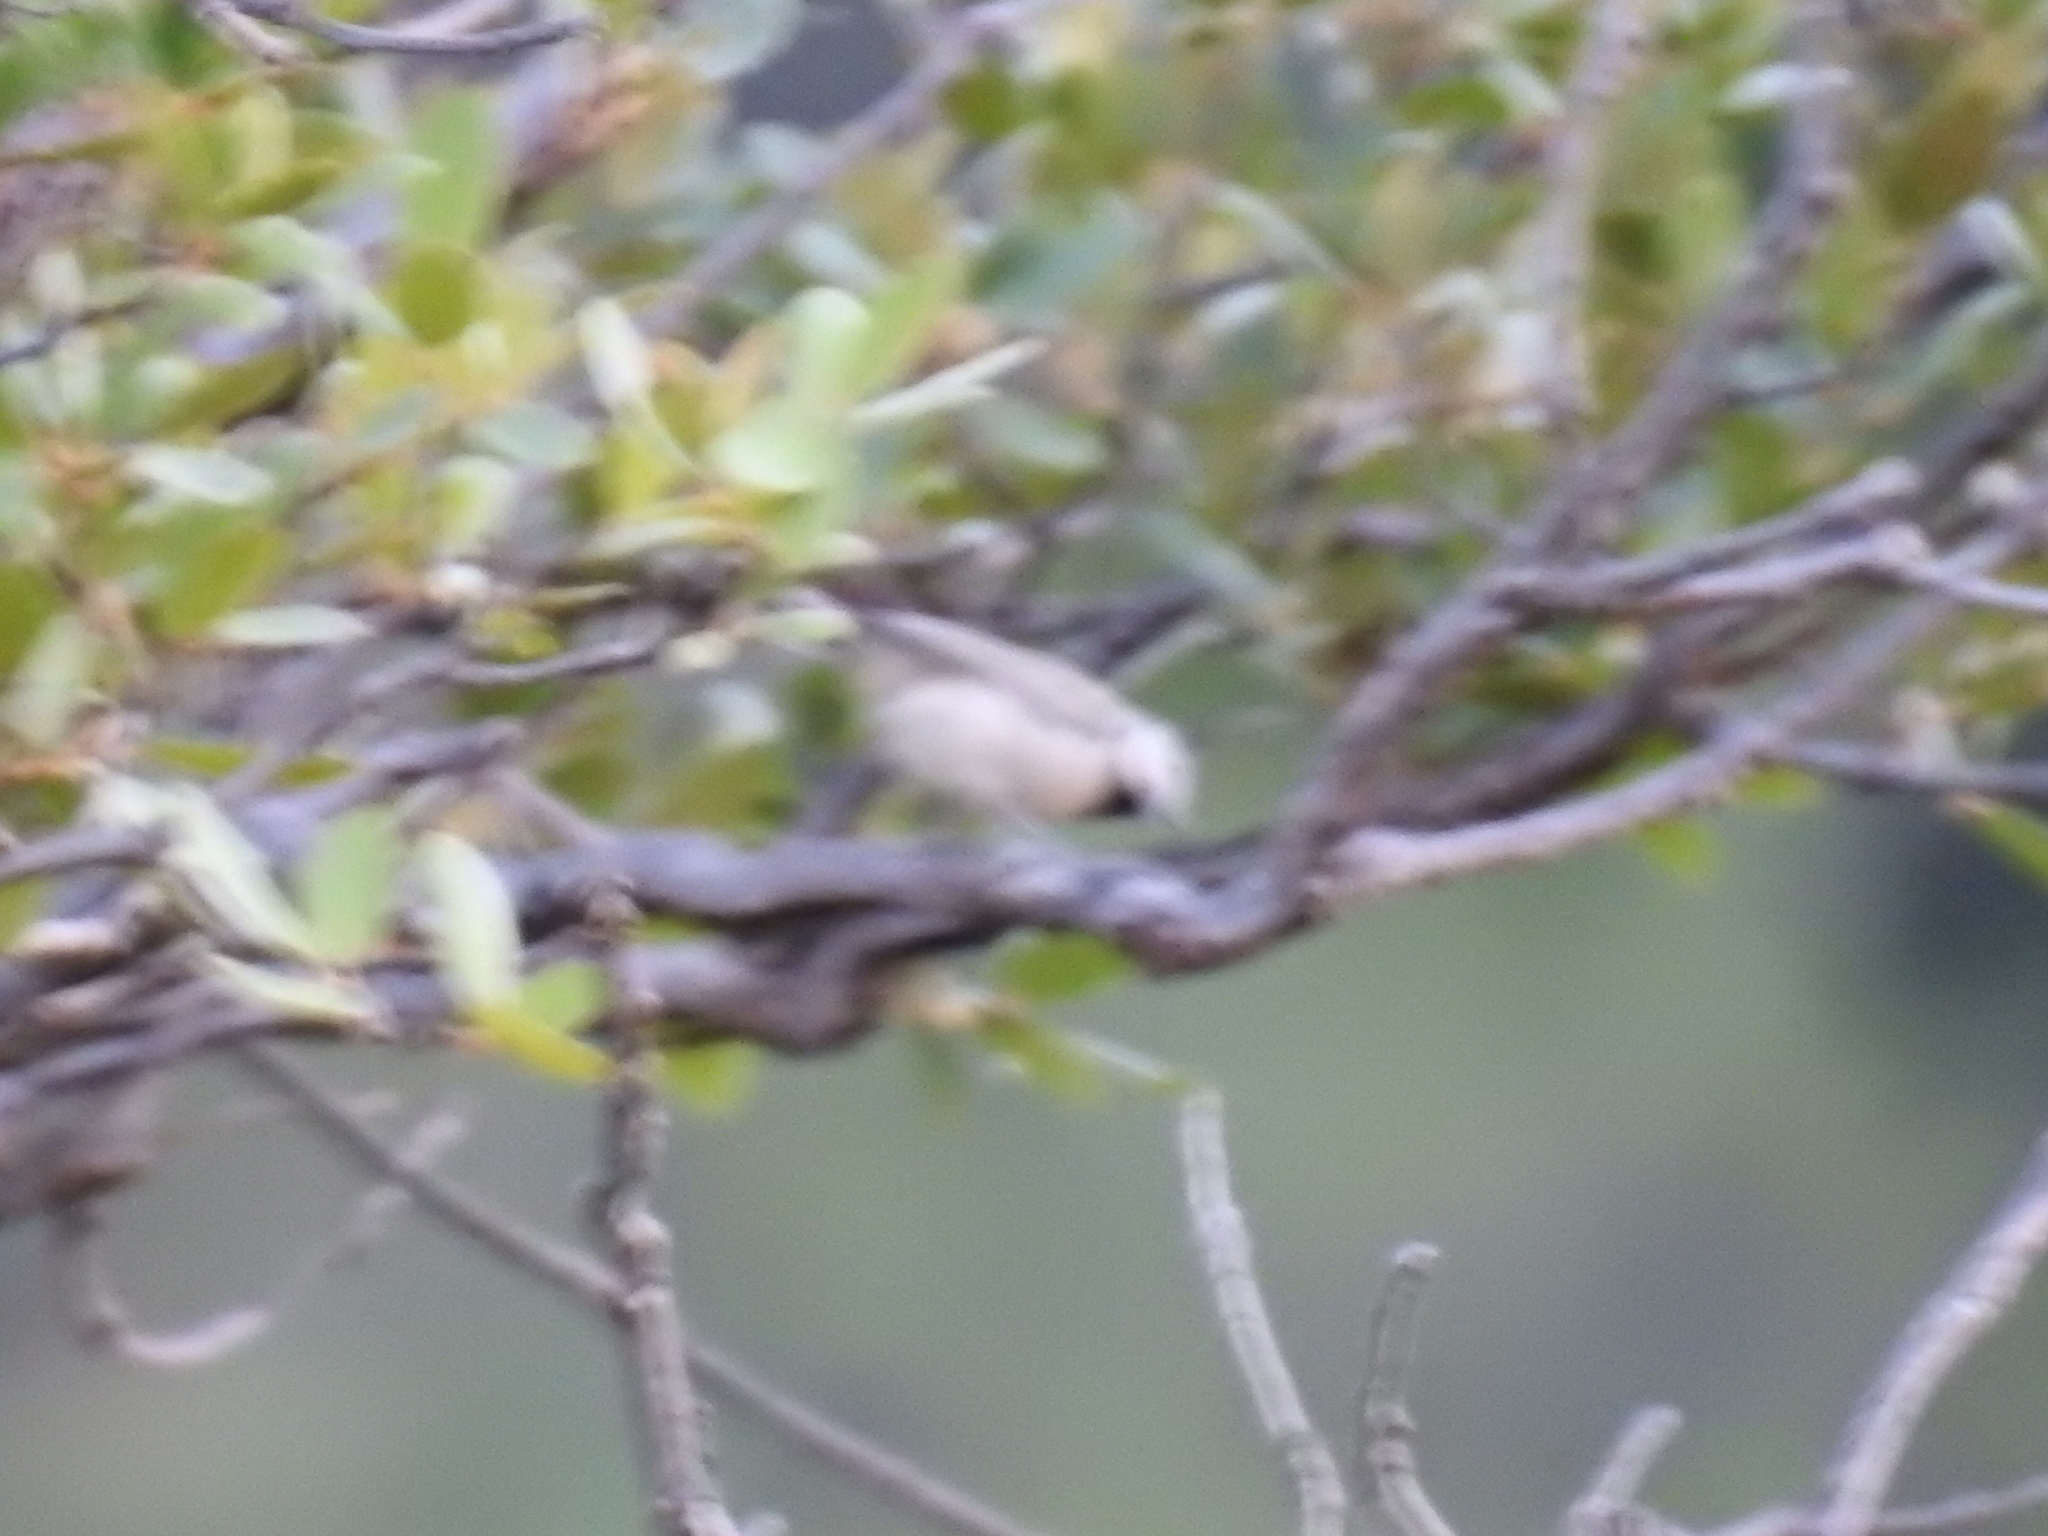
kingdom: Animalia
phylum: Chordata
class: Aves
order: Passeriformes
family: Paridae
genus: Baeolophus
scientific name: Baeolophus wollweberi
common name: Bridled titmouse
